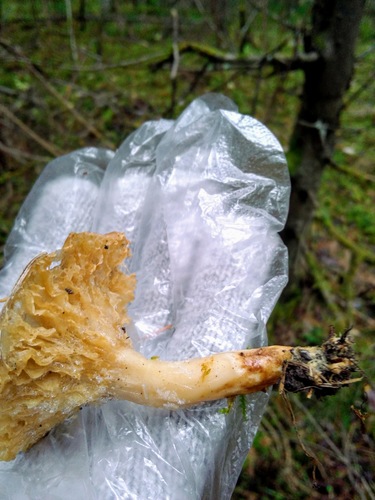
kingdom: Fungi
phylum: Basidiomycota
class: Agaricomycetes
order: Russulales
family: Russulaceae
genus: Lactarius
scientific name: Lactarius
